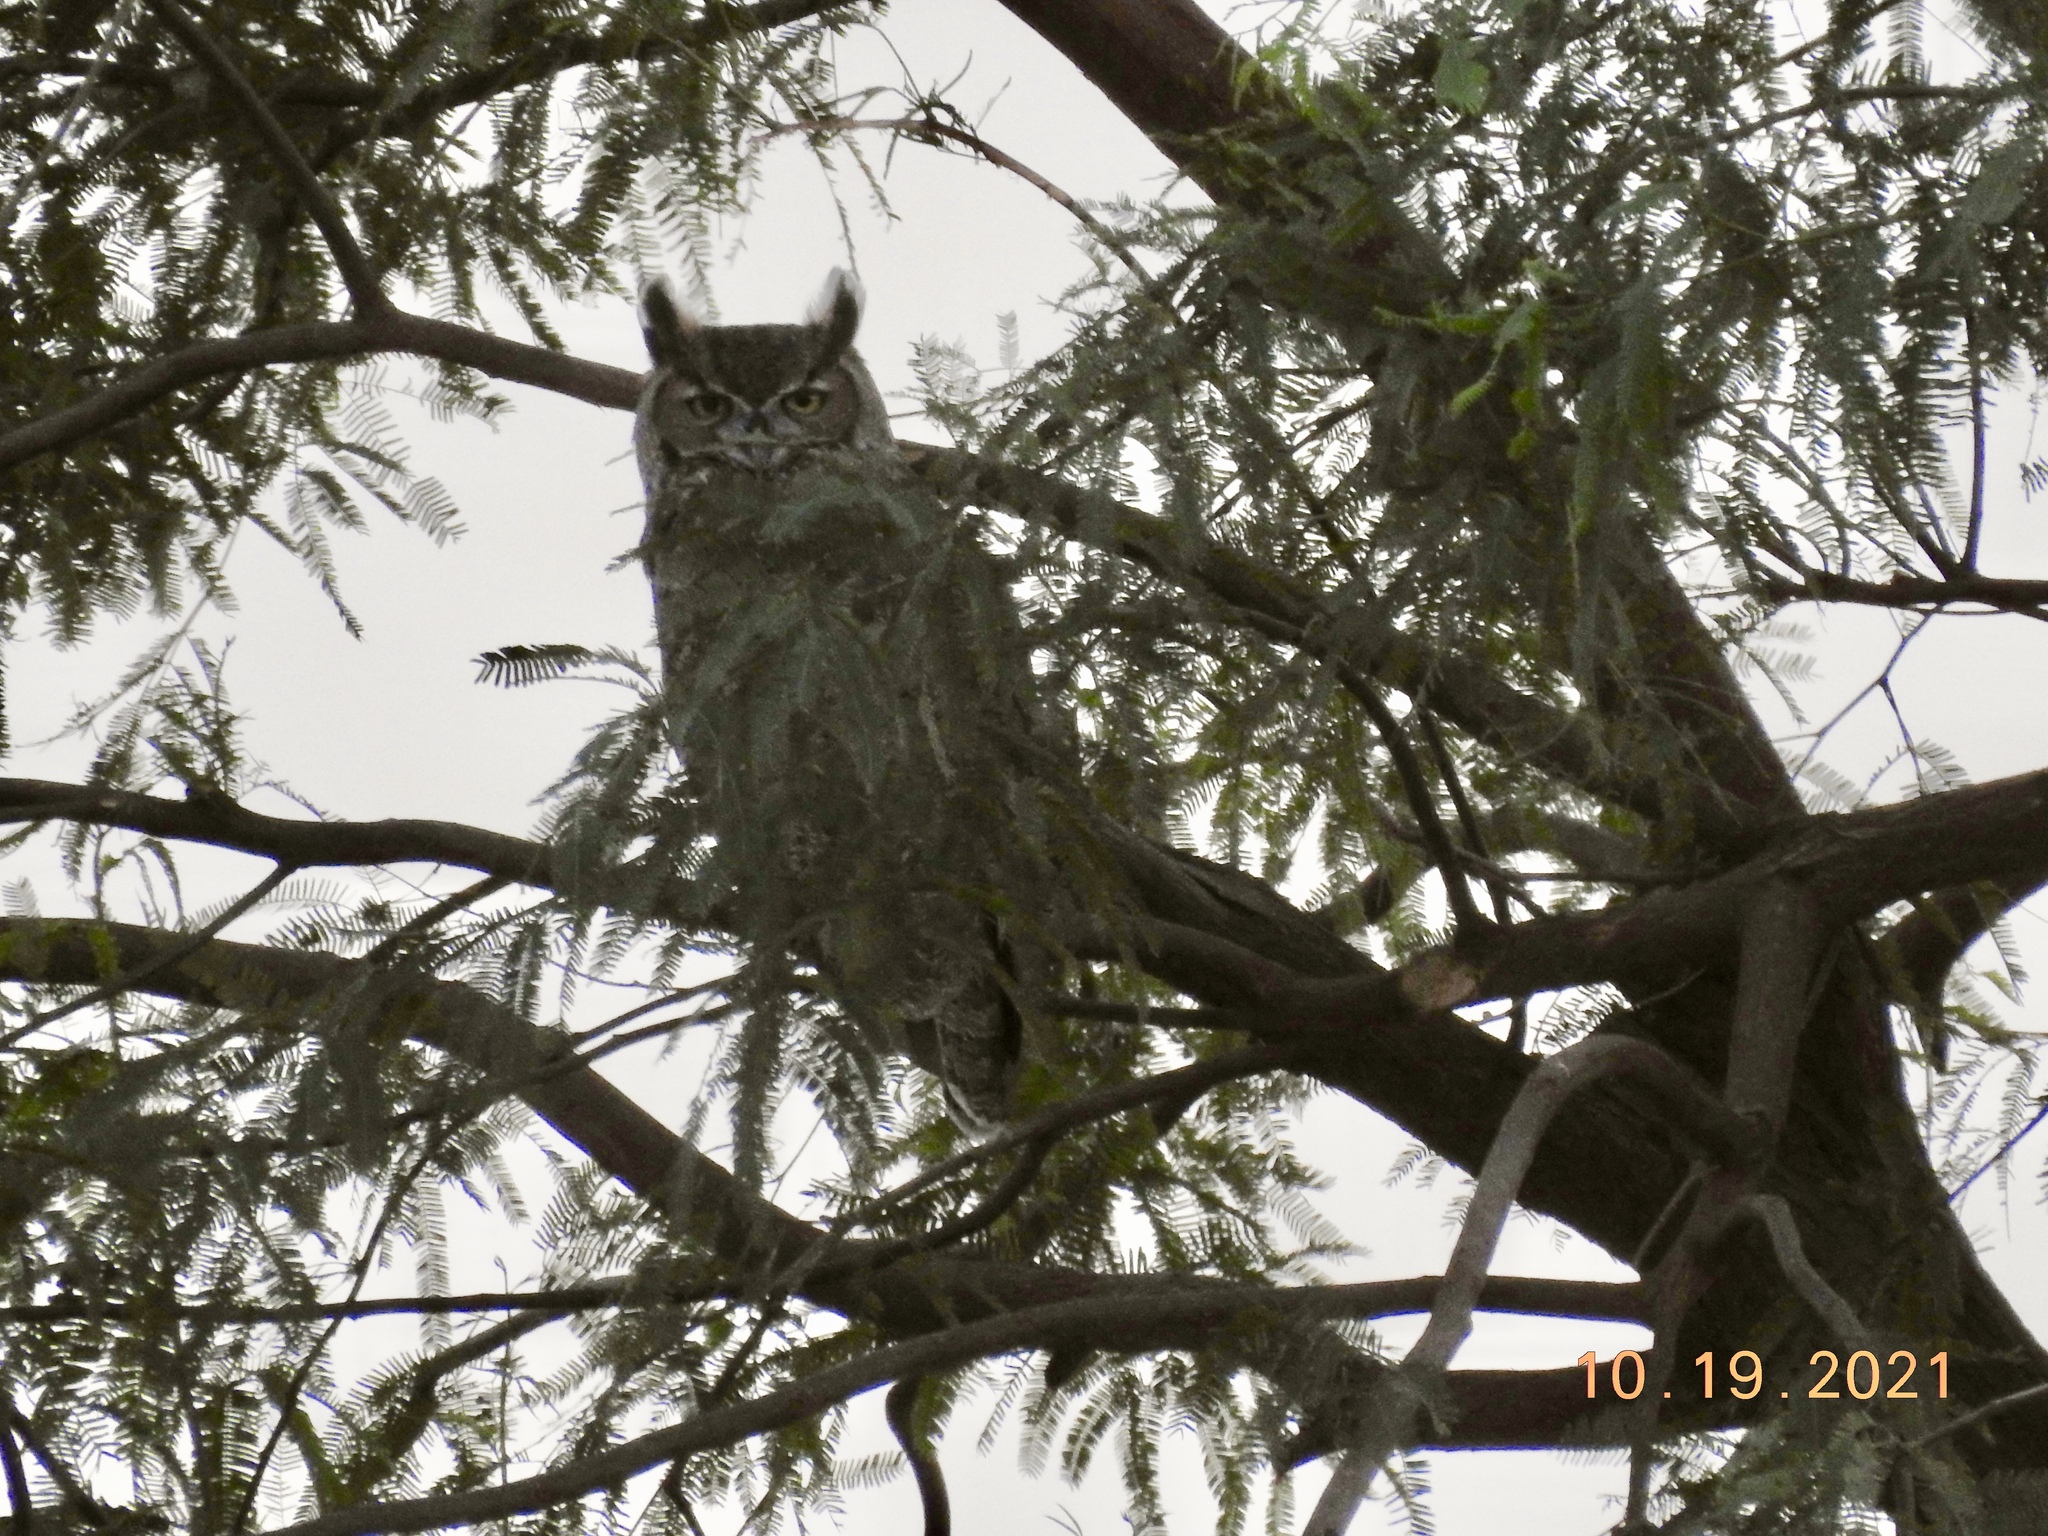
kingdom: Animalia
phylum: Chordata
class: Aves
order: Strigiformes
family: Strigidae
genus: Bubo
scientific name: Bubo virginianus
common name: Great horned owl
